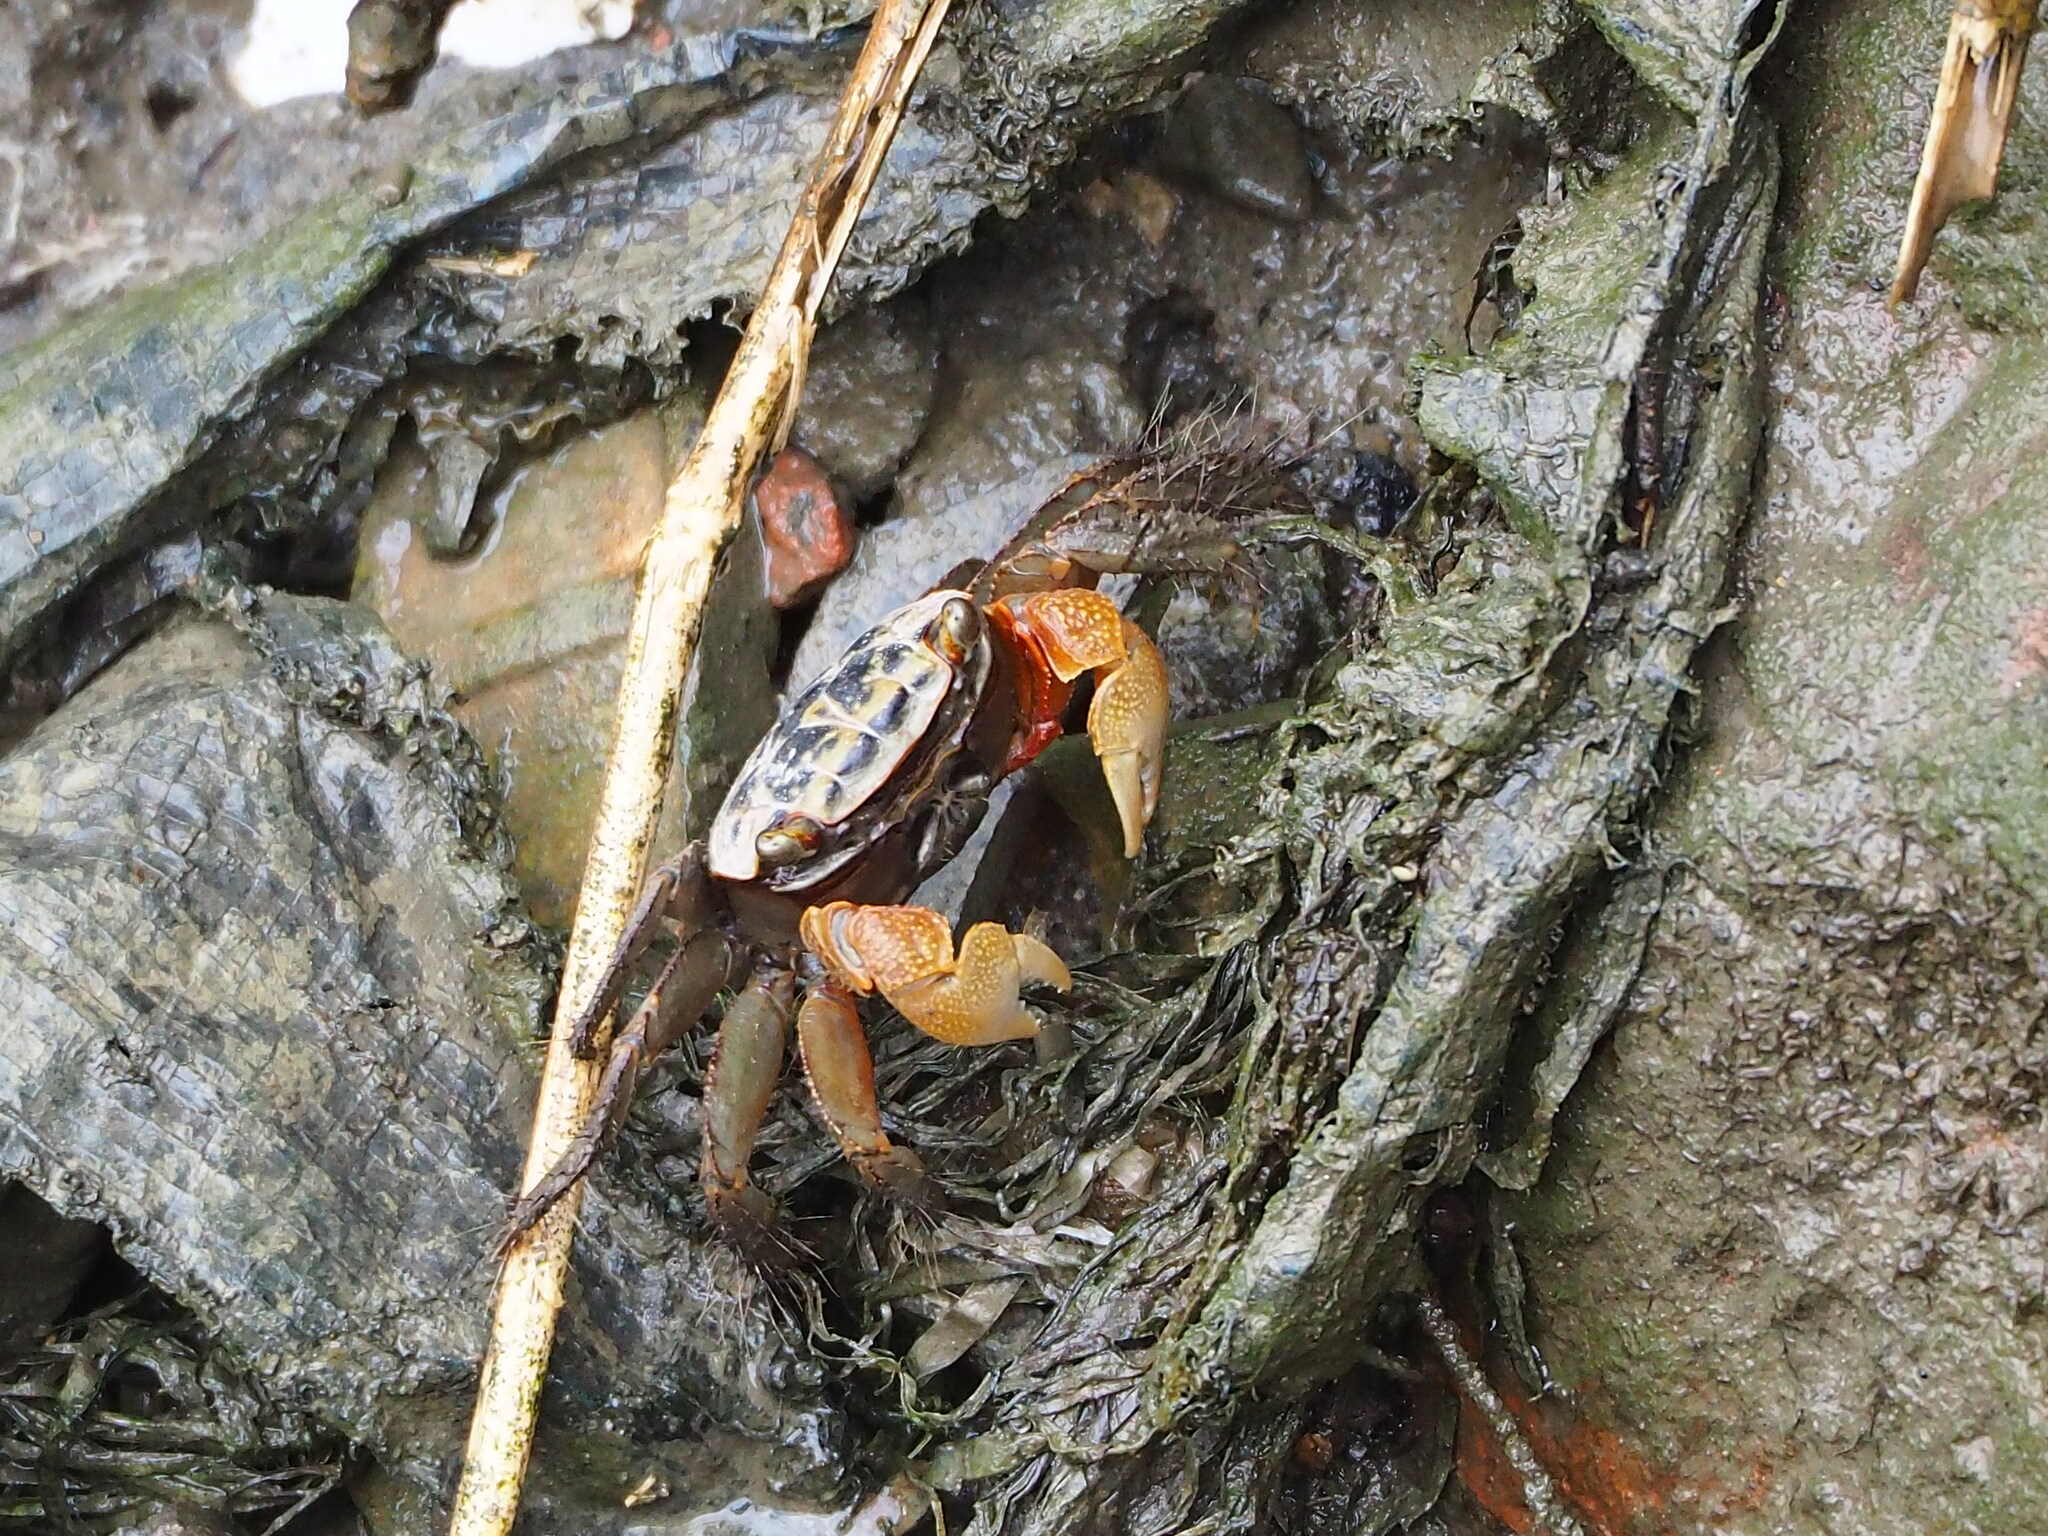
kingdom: Animalia
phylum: Arthropoda
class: Malacostraca
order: Decapoda
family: Sesarmidae
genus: Orisarma
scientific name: Orisarma dehaani
